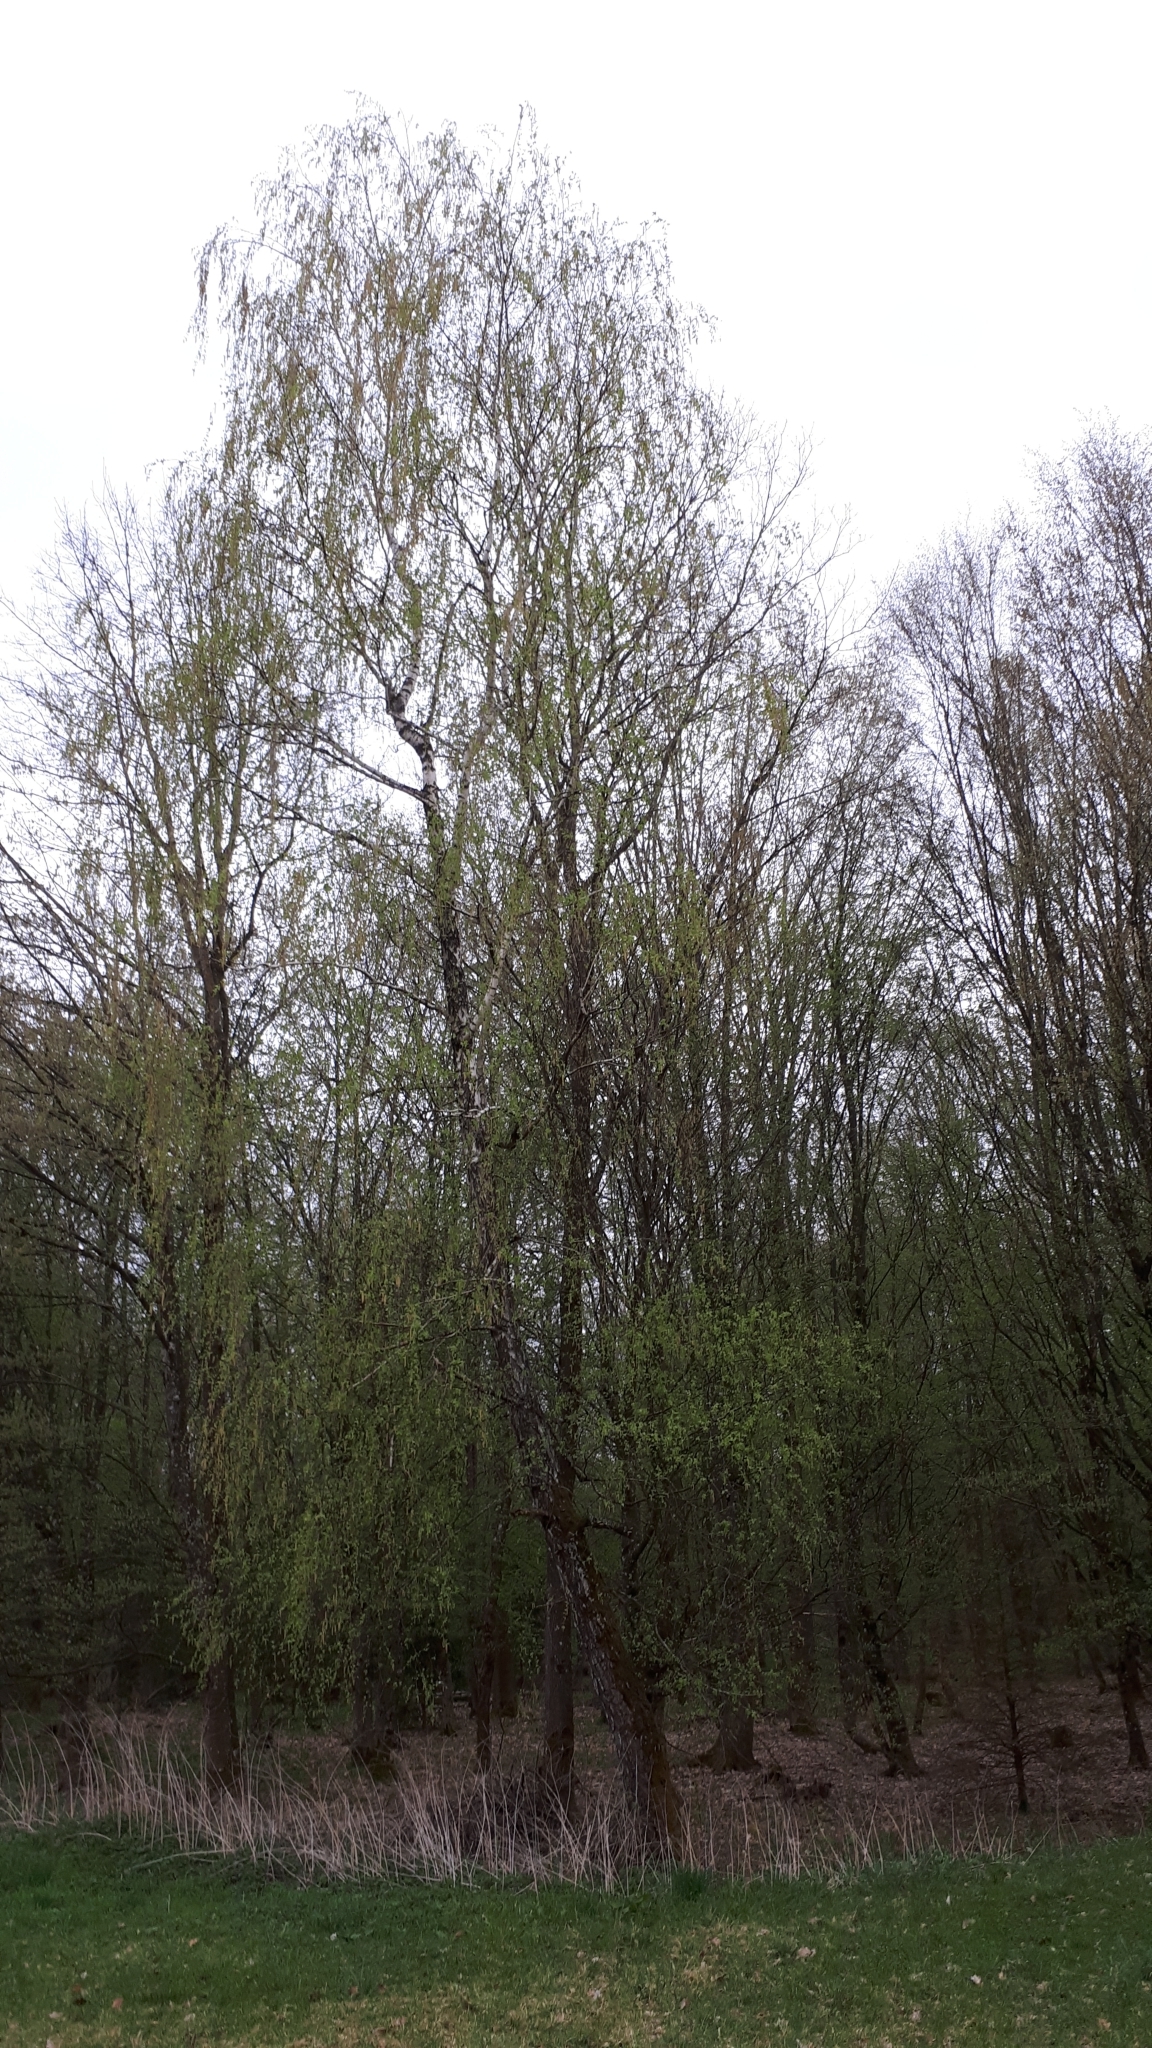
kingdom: Plantae
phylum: Tracheophyta
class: Magnoliopsida
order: Fagales
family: Betulaceae
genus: Betula
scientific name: Betula pendula
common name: Silver birch
